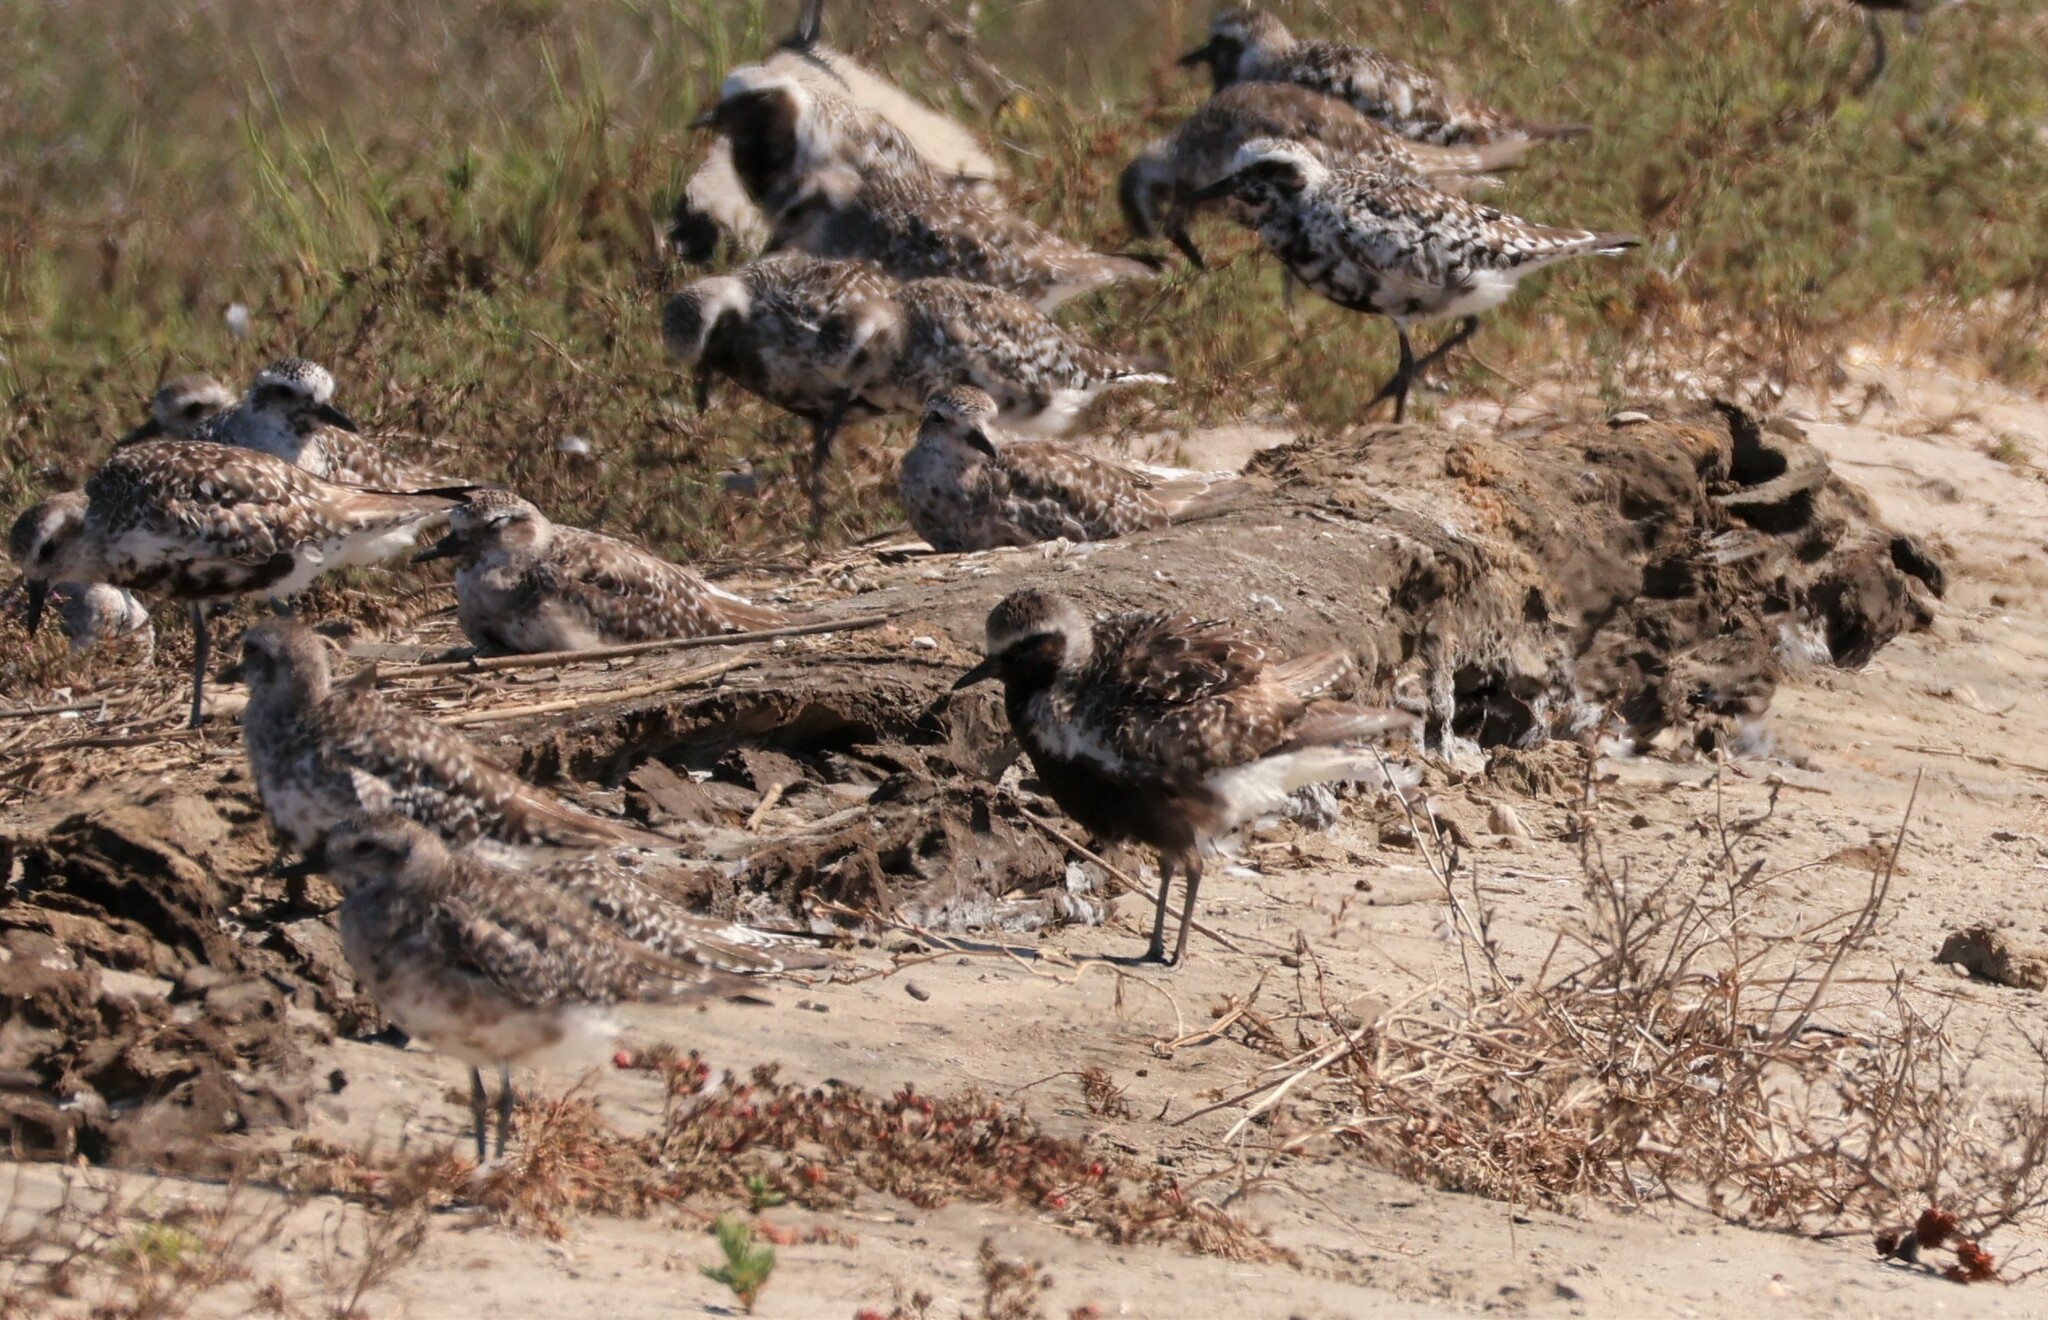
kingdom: Animalia
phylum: Chordata
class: Aves
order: Charadriiformes
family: Charadriidae
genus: Pluvialis
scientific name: Pluvialis squatarola
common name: Grey plover
